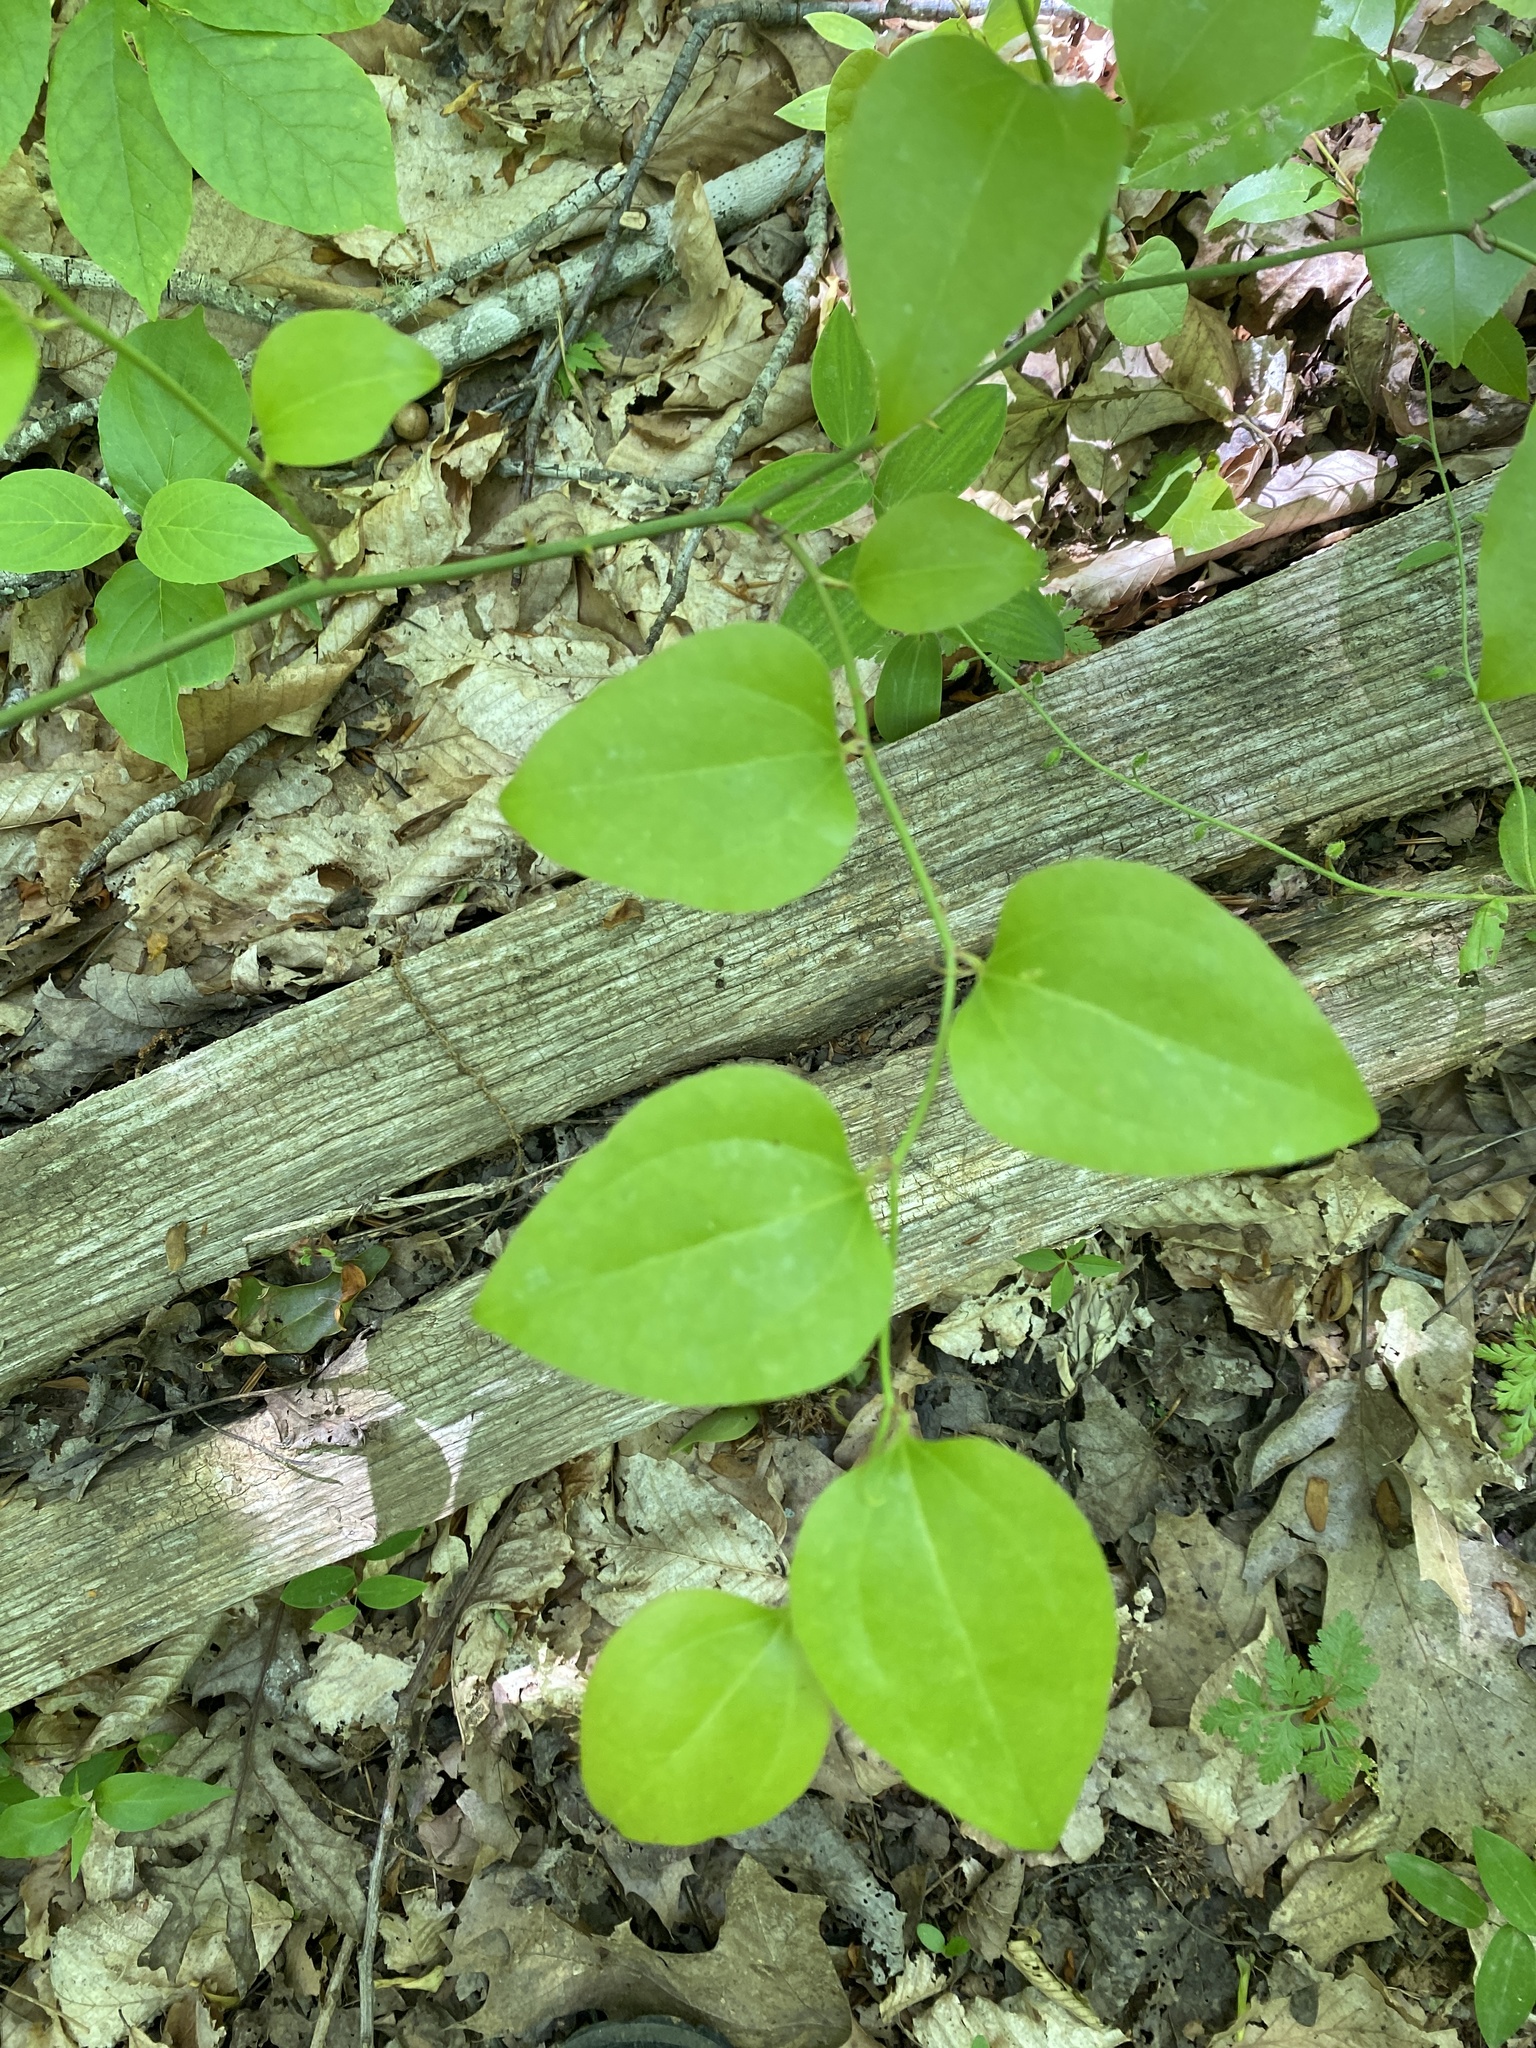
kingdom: Plantae
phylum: Tracheophyta
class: Liliopsida
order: Liliales
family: Smilacaceae
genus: Smilax
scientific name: Smilax rotundifolia
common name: Bullbriar
